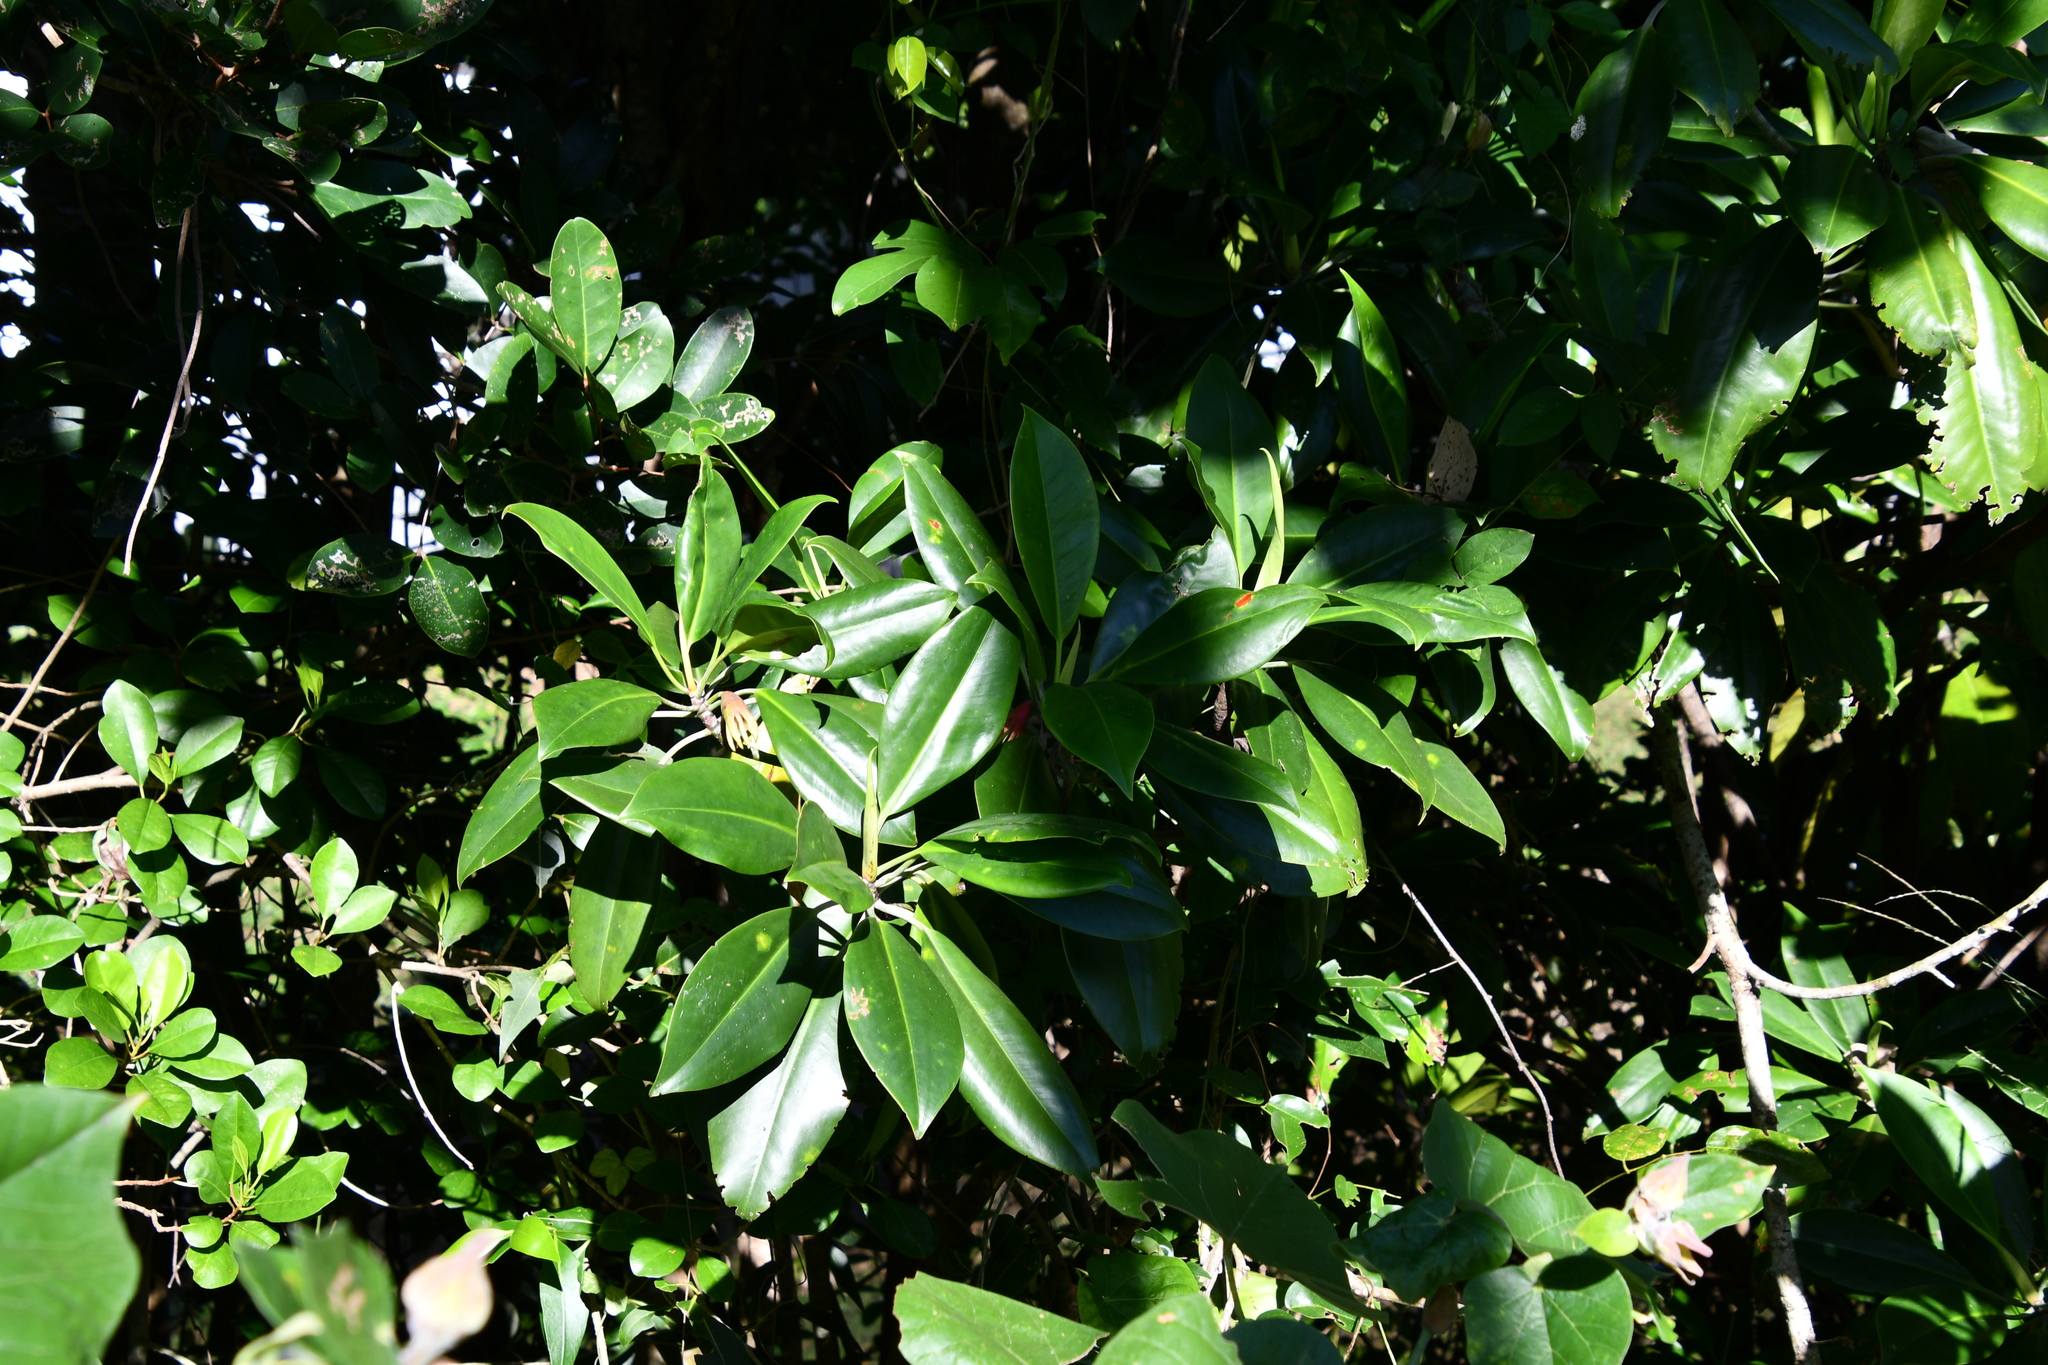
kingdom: Plantae
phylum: Tracheophyta
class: Magnoliopsida
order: Malpighiales
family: Rhizophoraceae
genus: Bruguiera
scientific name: Bruguiera gymnorhiza
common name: Oriental mangrove
